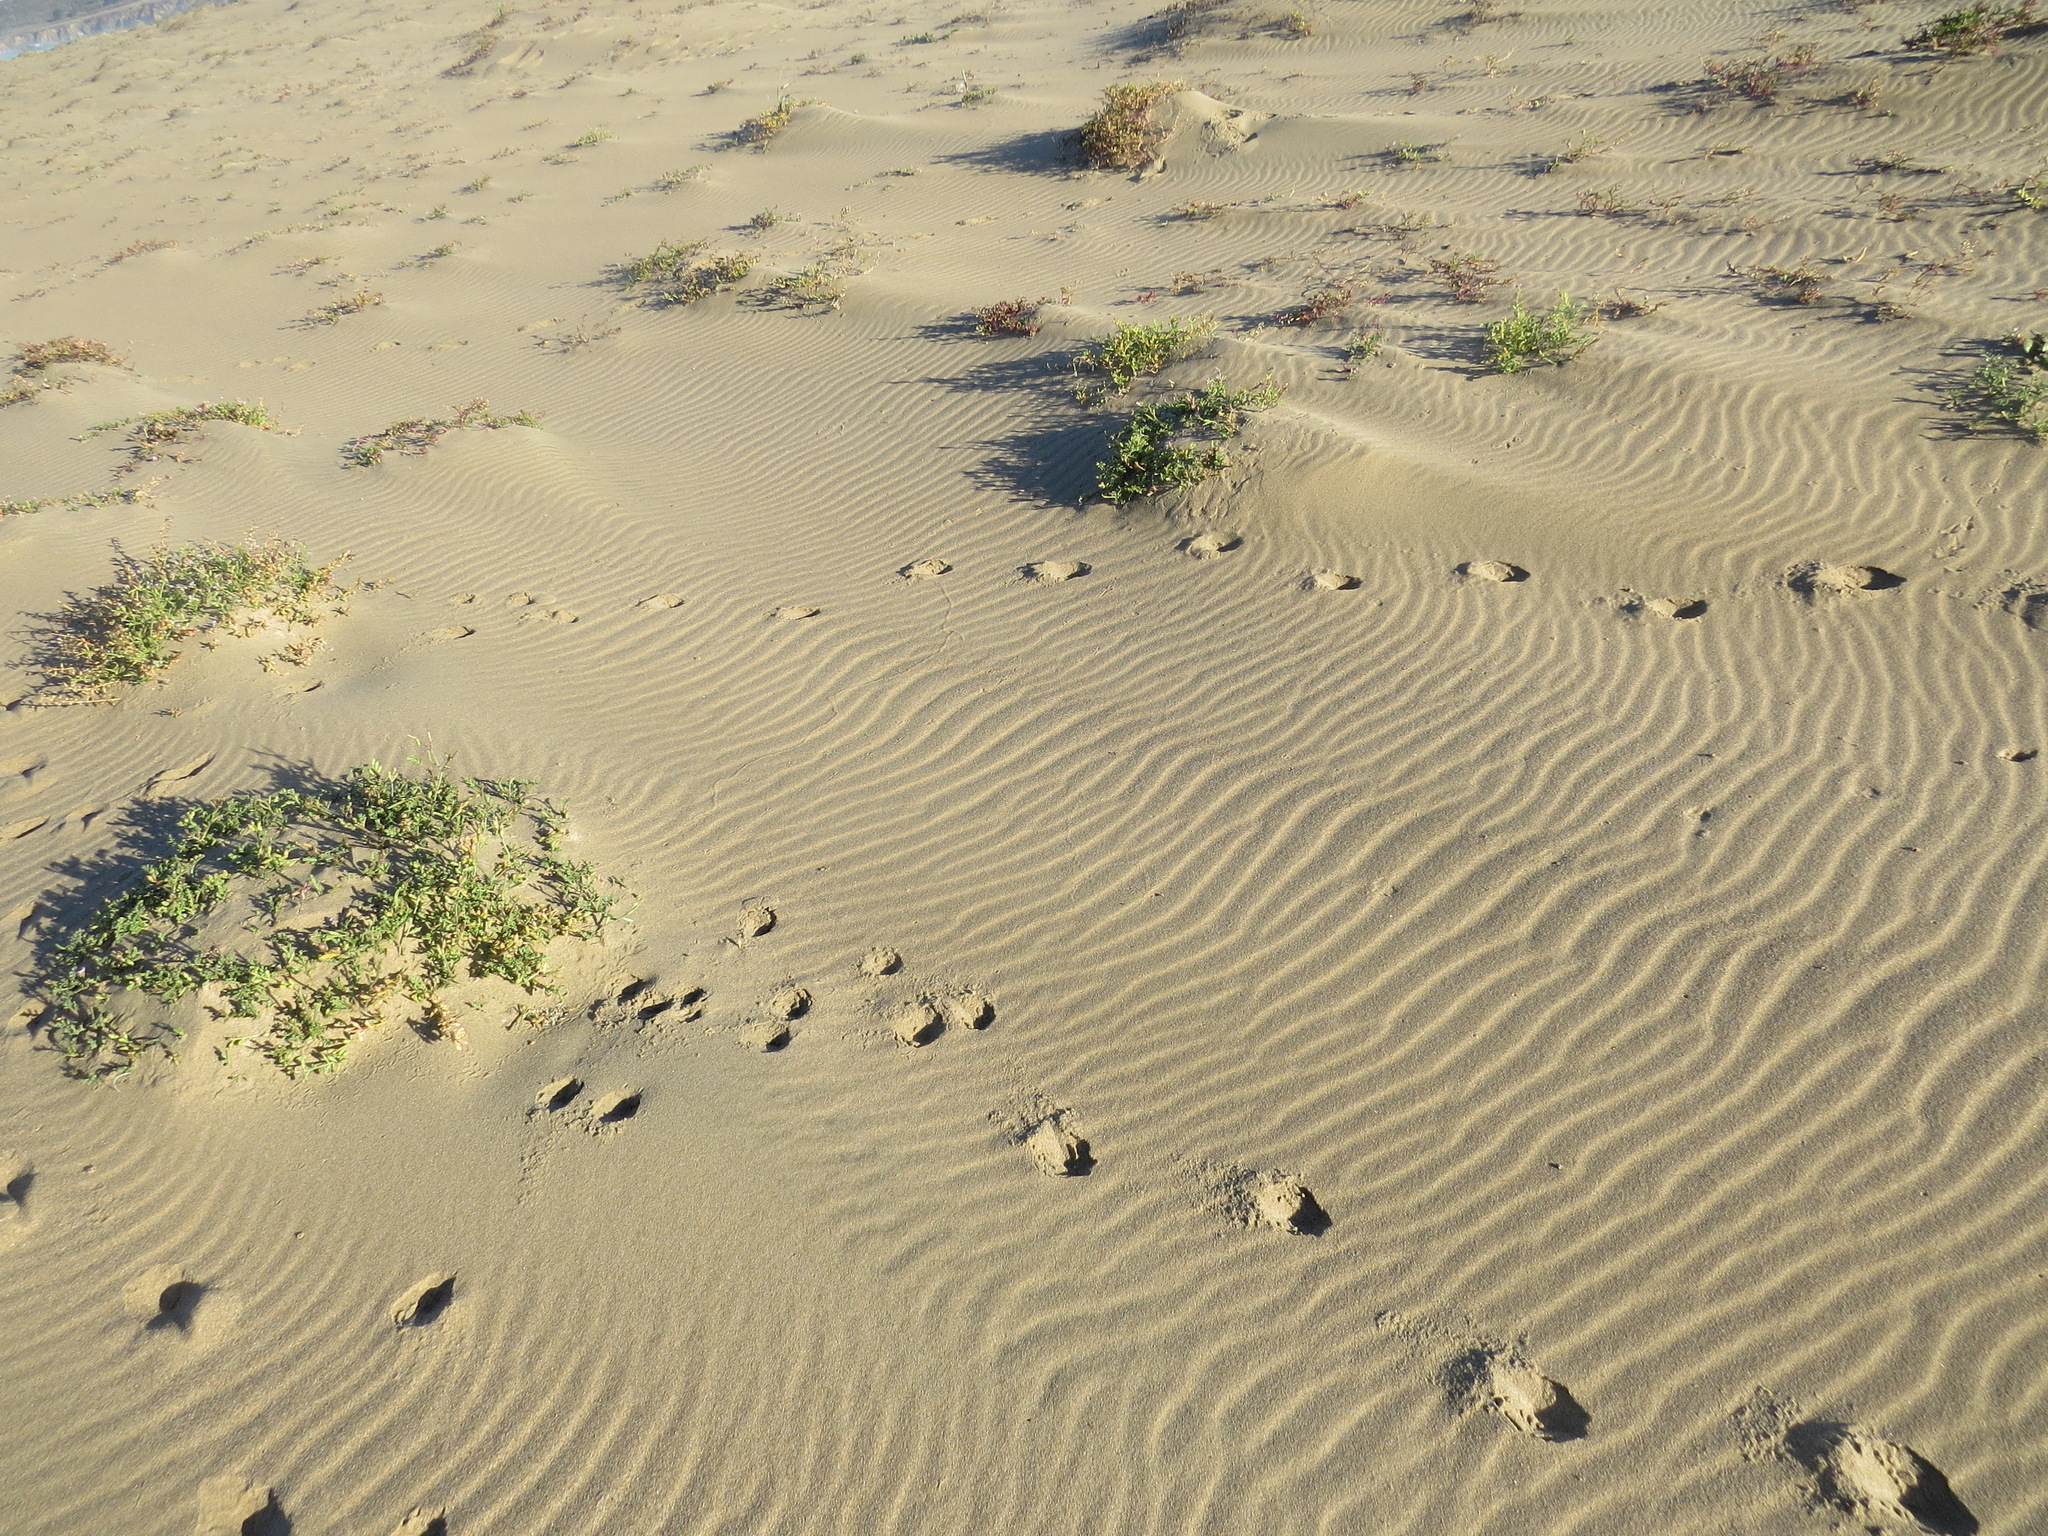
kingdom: Animalia
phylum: Chordata
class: Mammalia
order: Artiodactyla
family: Cervidae
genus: Odocoileus
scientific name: Odocoileus hemionus
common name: Mule deer
